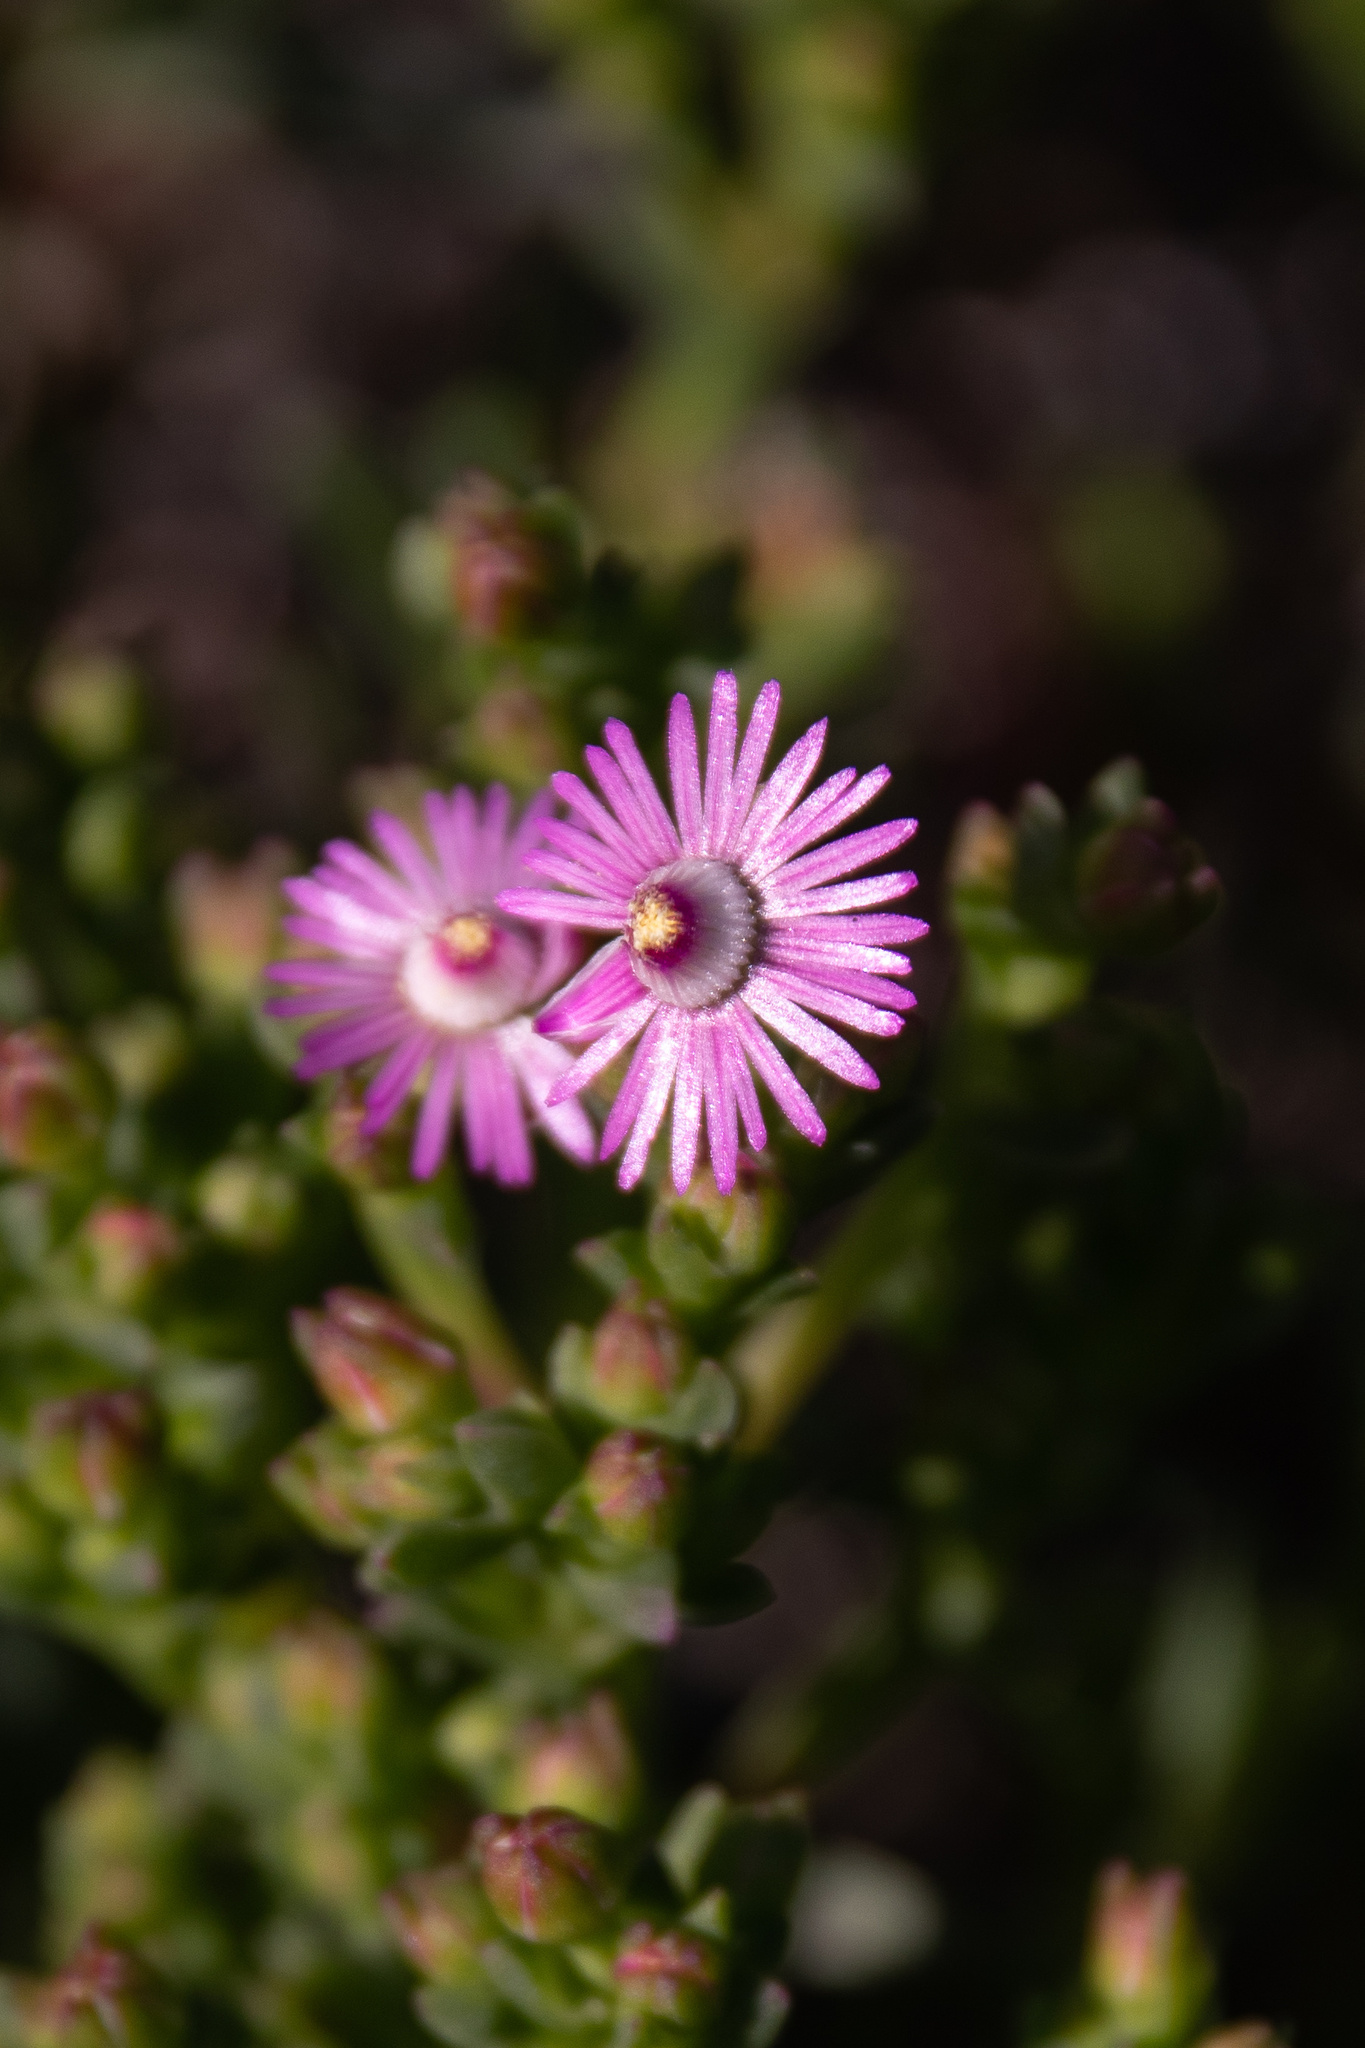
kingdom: Plantae
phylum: Tracheophyta
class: Magnoliopsida
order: Caryophyllales
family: Aizoaceae
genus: Ruschia
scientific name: Ruschia macowanii
